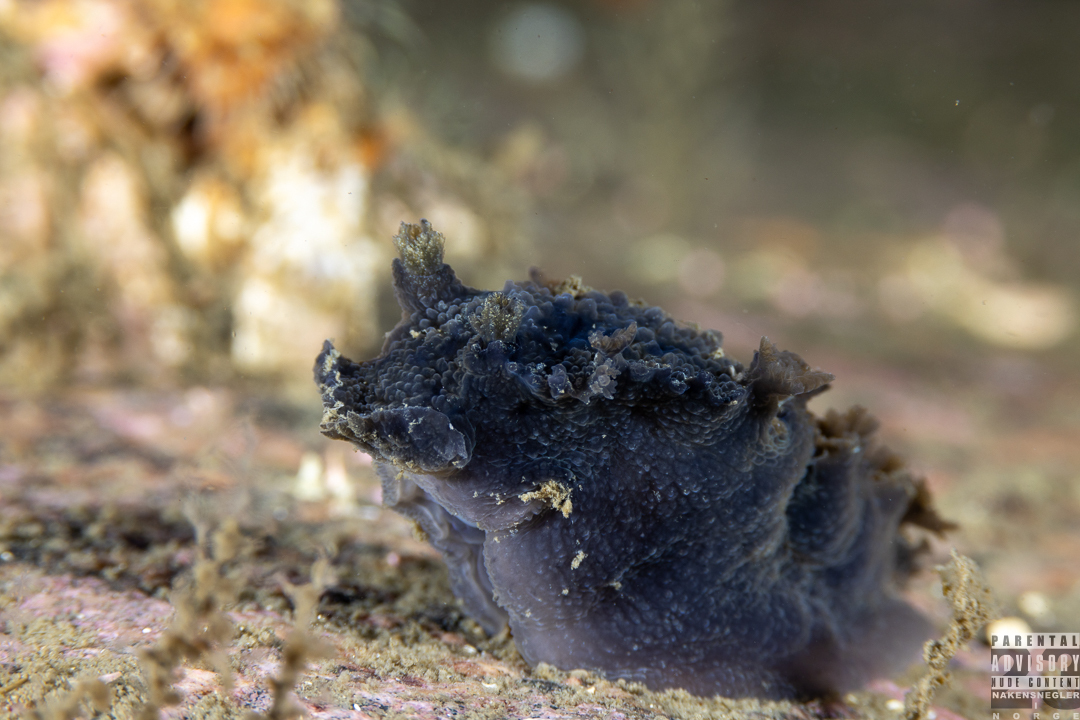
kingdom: Animalia
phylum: Mollusca
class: Gastropoda
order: Nudibranchia
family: Tritoniidae
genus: Tritonia
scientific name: Tritonia hombergii
